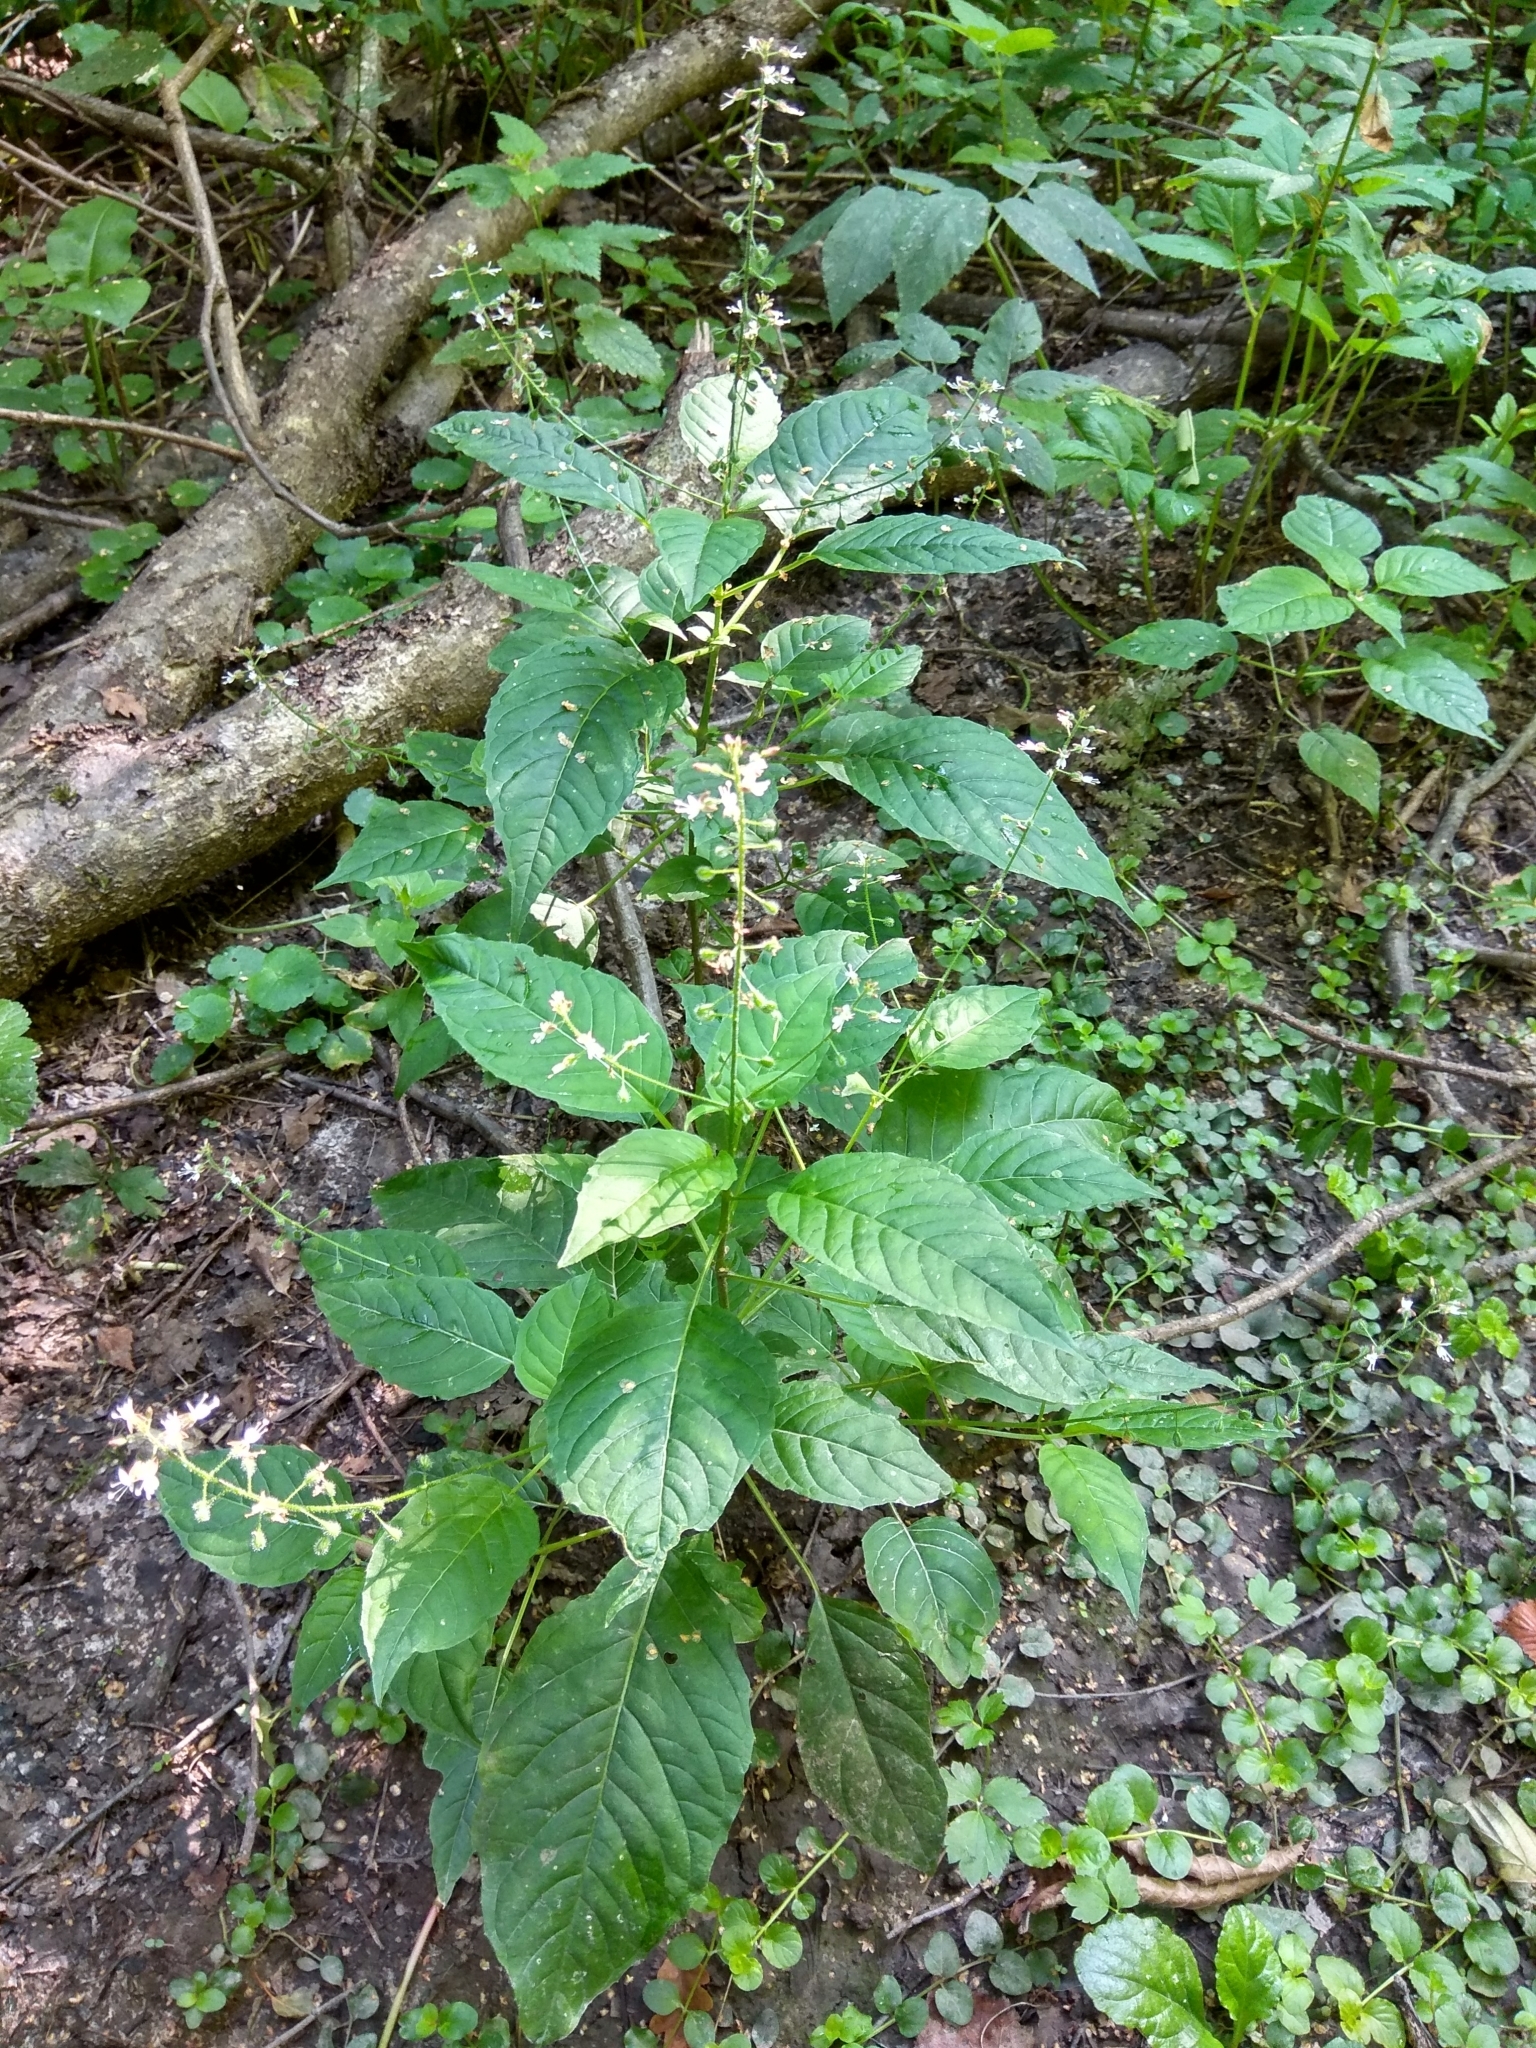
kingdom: Plantae
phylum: Tracheophyta
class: Magnoliopsida
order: Myrtales
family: Onagraceae
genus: Circaea
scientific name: Circaea lutetiana
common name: Enchanter's-nightshade
